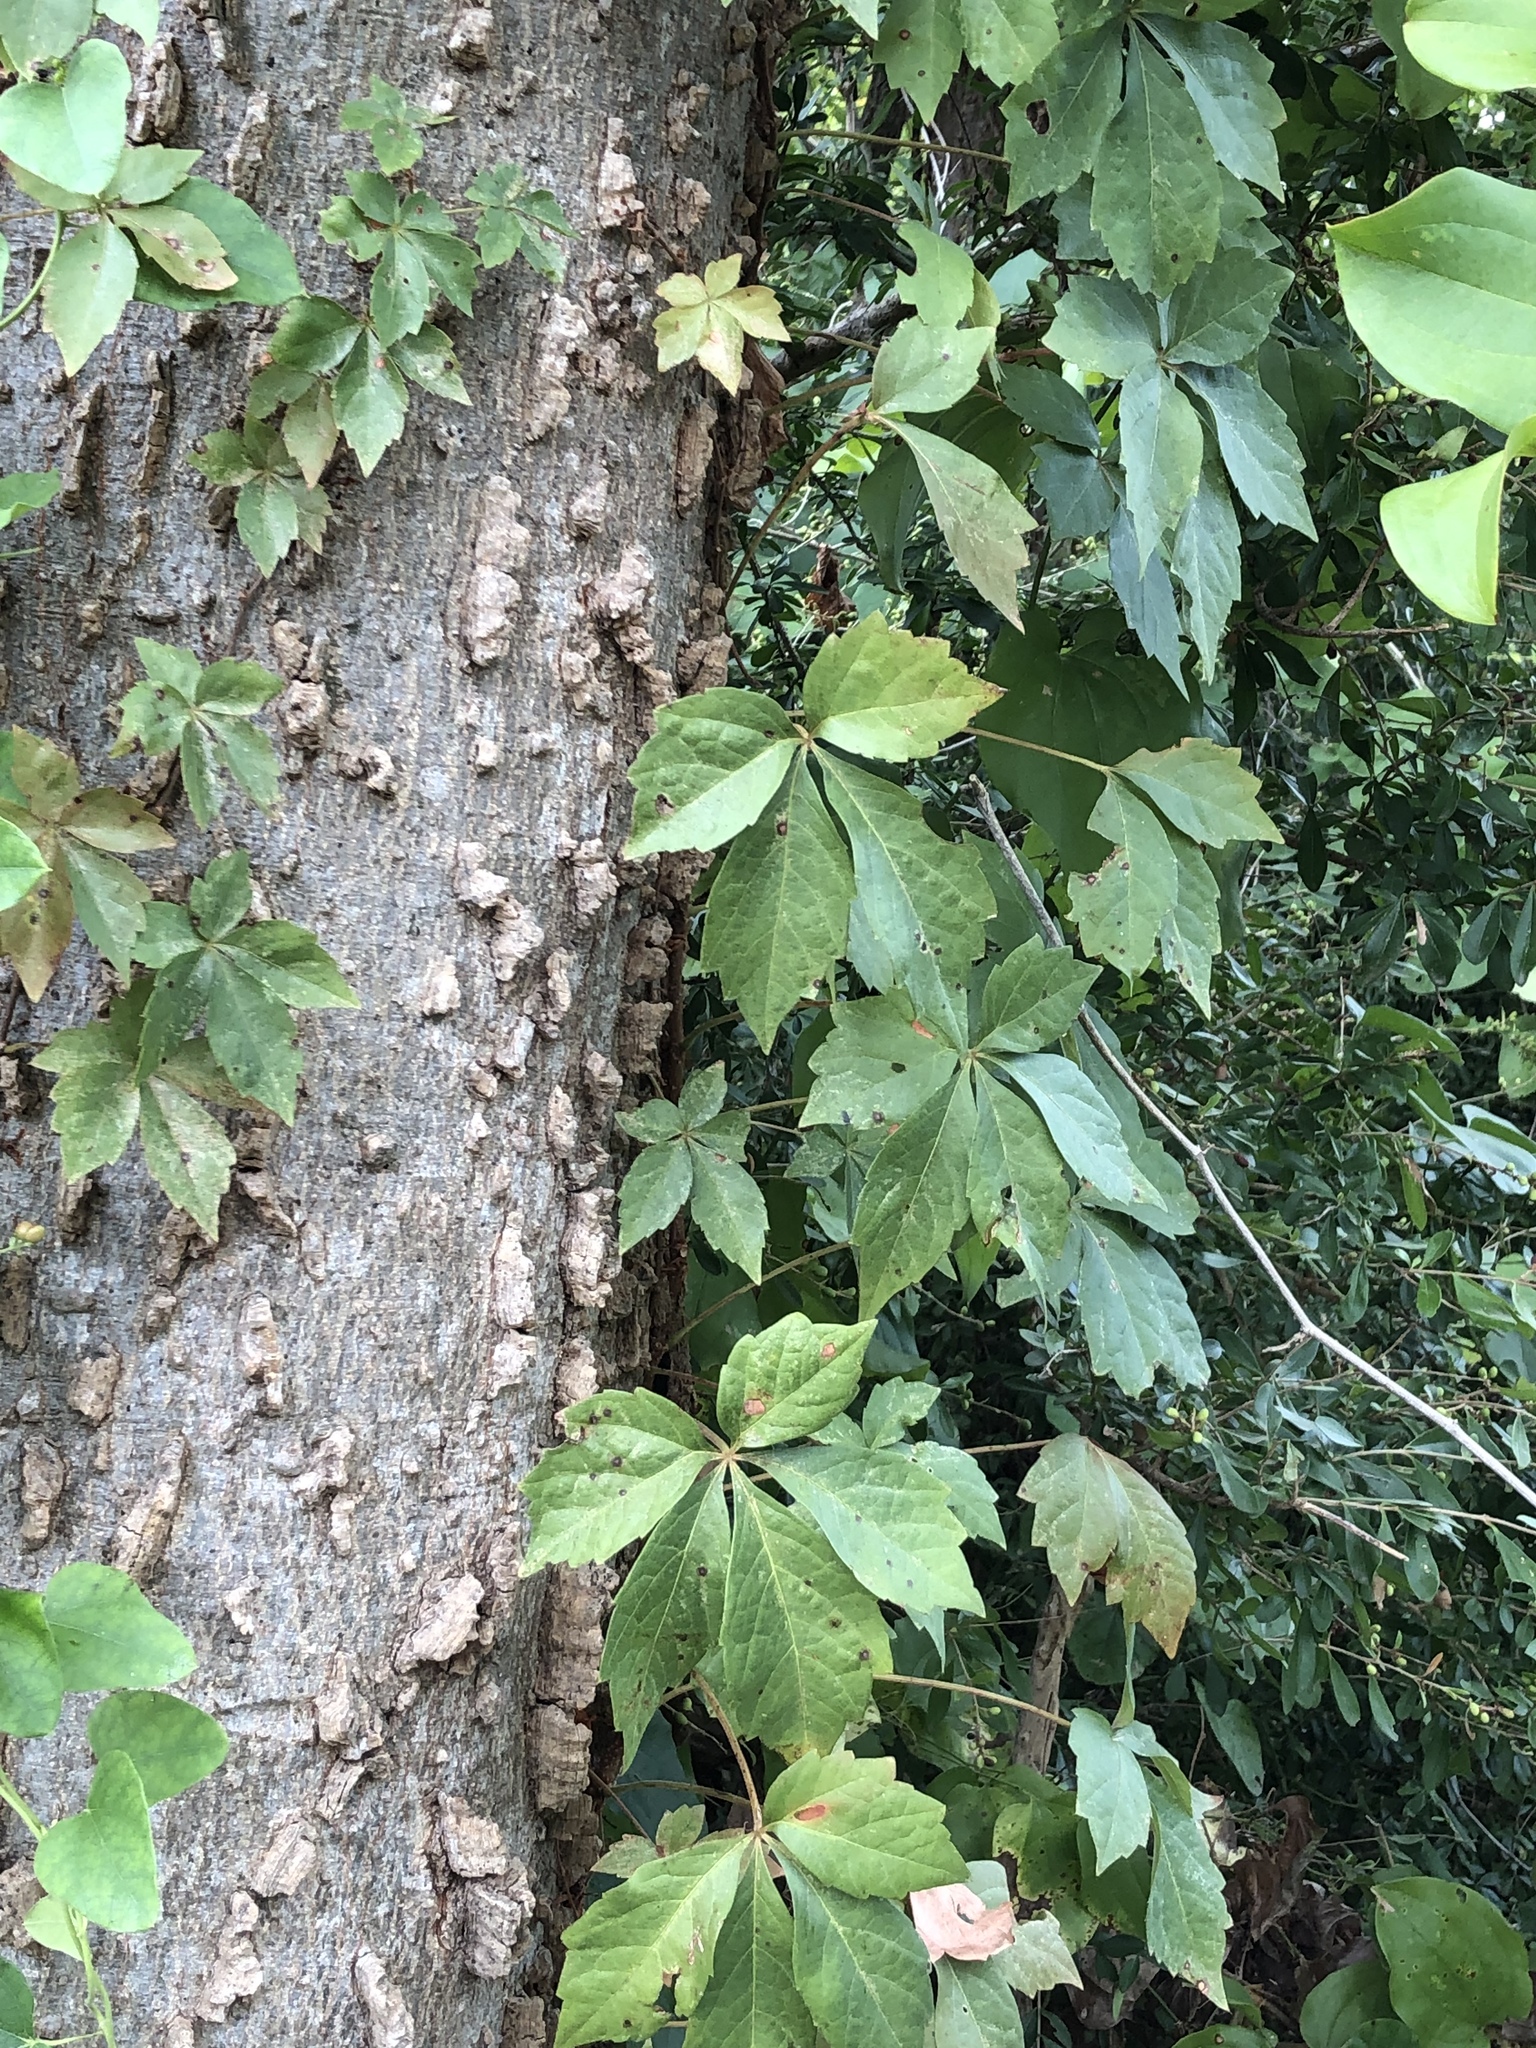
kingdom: Plantae
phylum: Tracheophyta
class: Magnoliopsida
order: Vitales
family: Vitaceae
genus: Parthenocissus
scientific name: Parthenocissus quinquefolia
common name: Virginia-creeper
